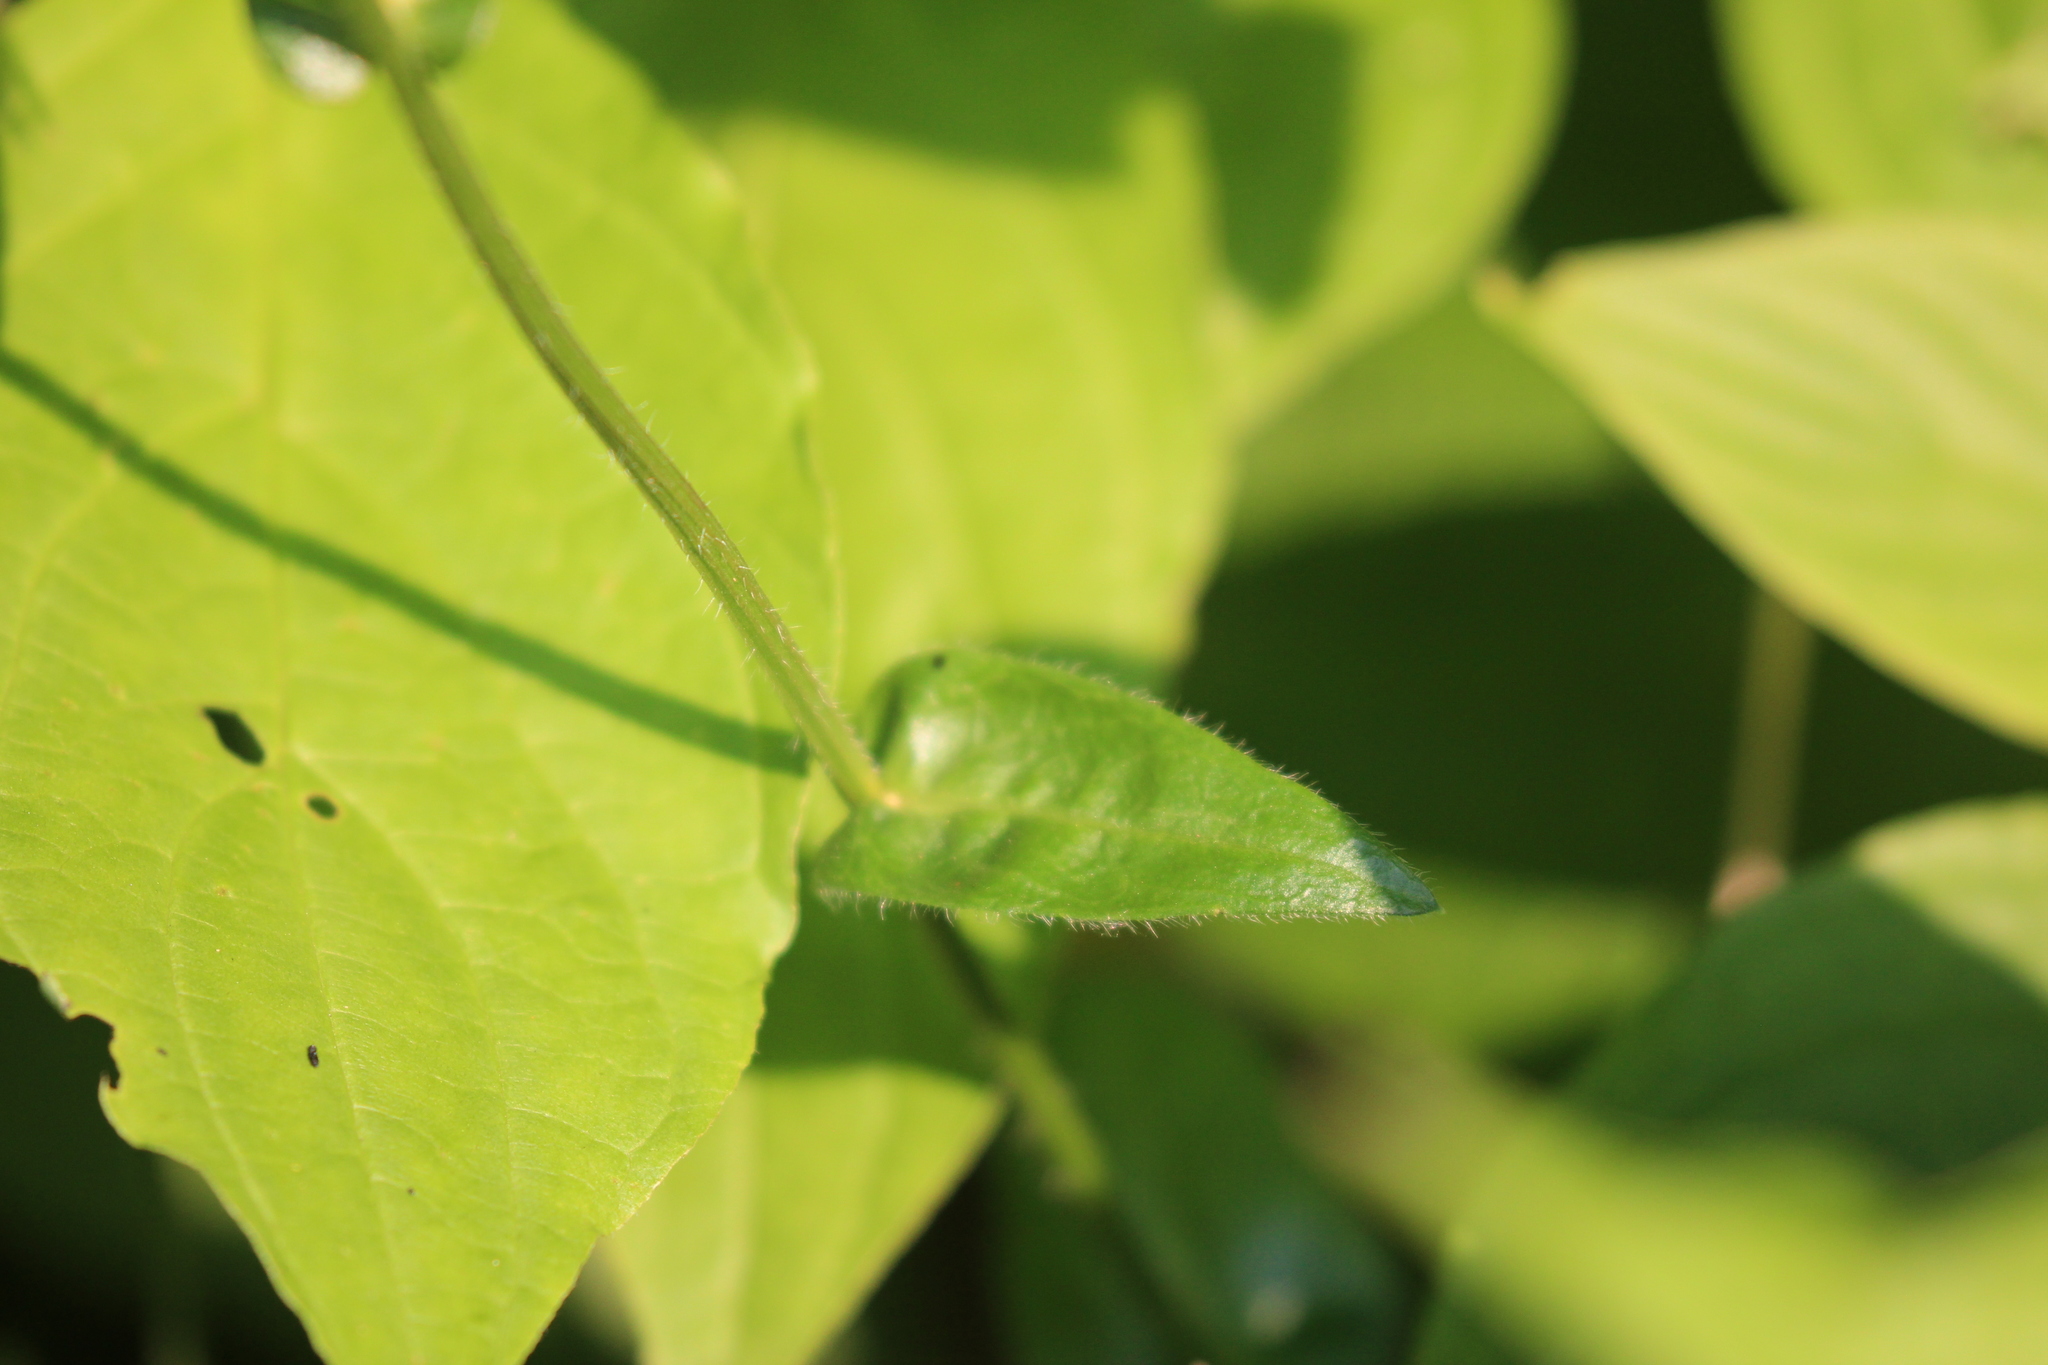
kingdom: Plantae
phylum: Tracheophyta
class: Magnoliopsida
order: Asterales
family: Asteraceae
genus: Erigeron
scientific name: Erigeron philadelphicus
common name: Robin's-plantain
